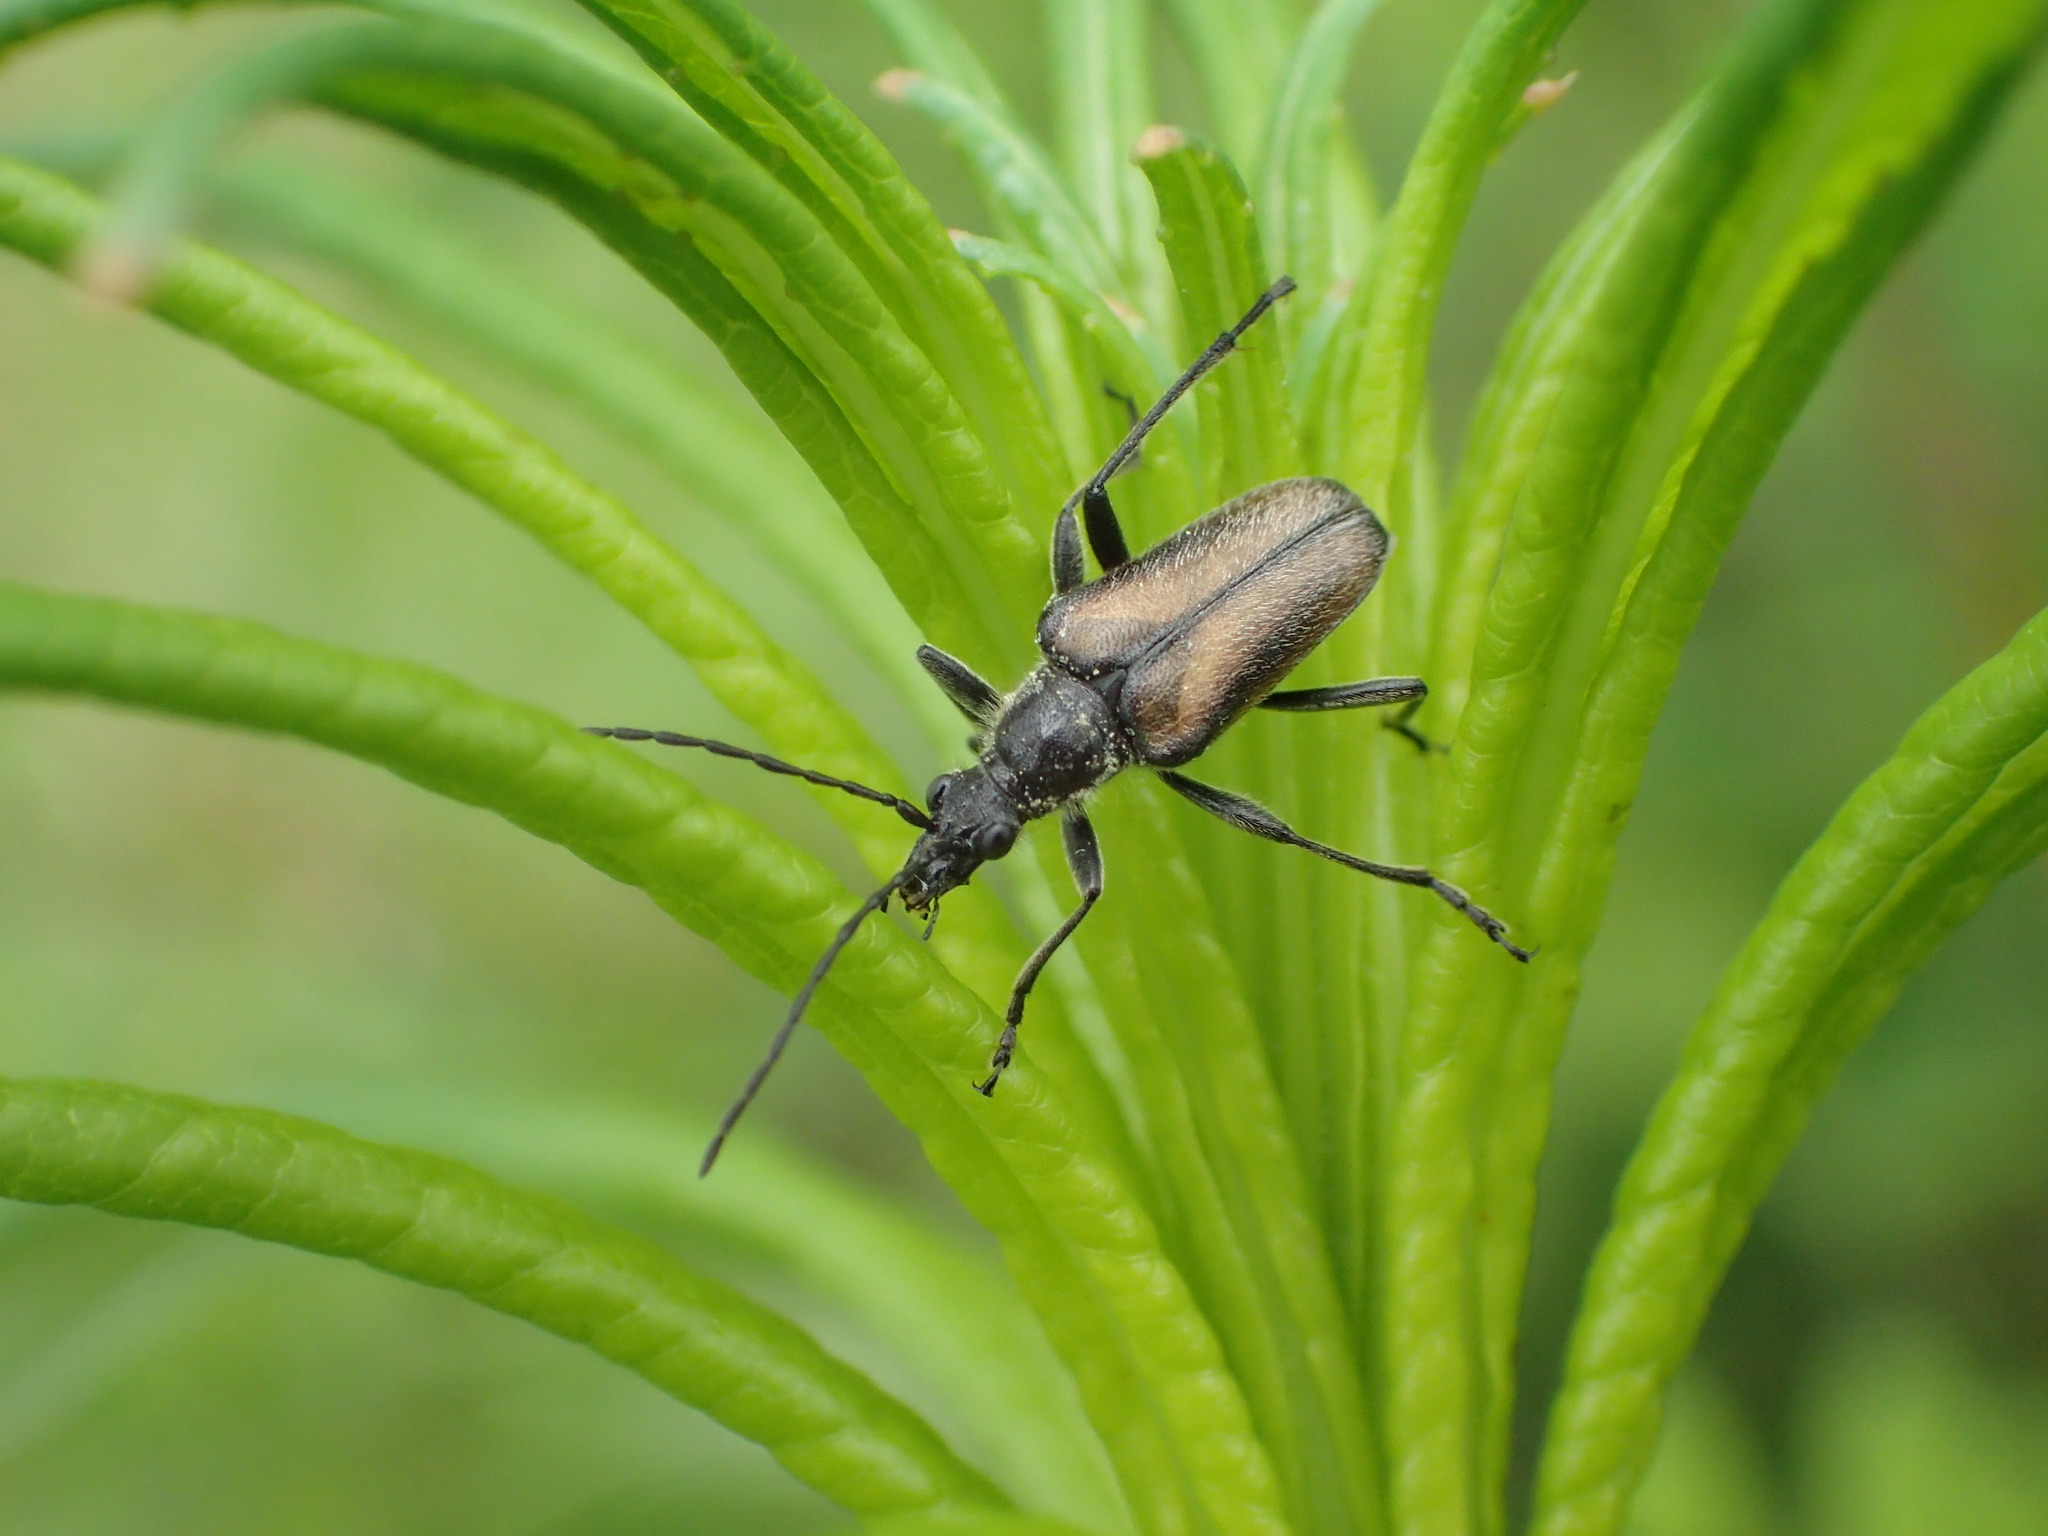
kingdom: Animalia
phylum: Arthropoda
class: Insecta
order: Coleoptera
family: Cerambycidae
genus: Gnathacmaeops
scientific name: Gnathacmaeops pratensis
